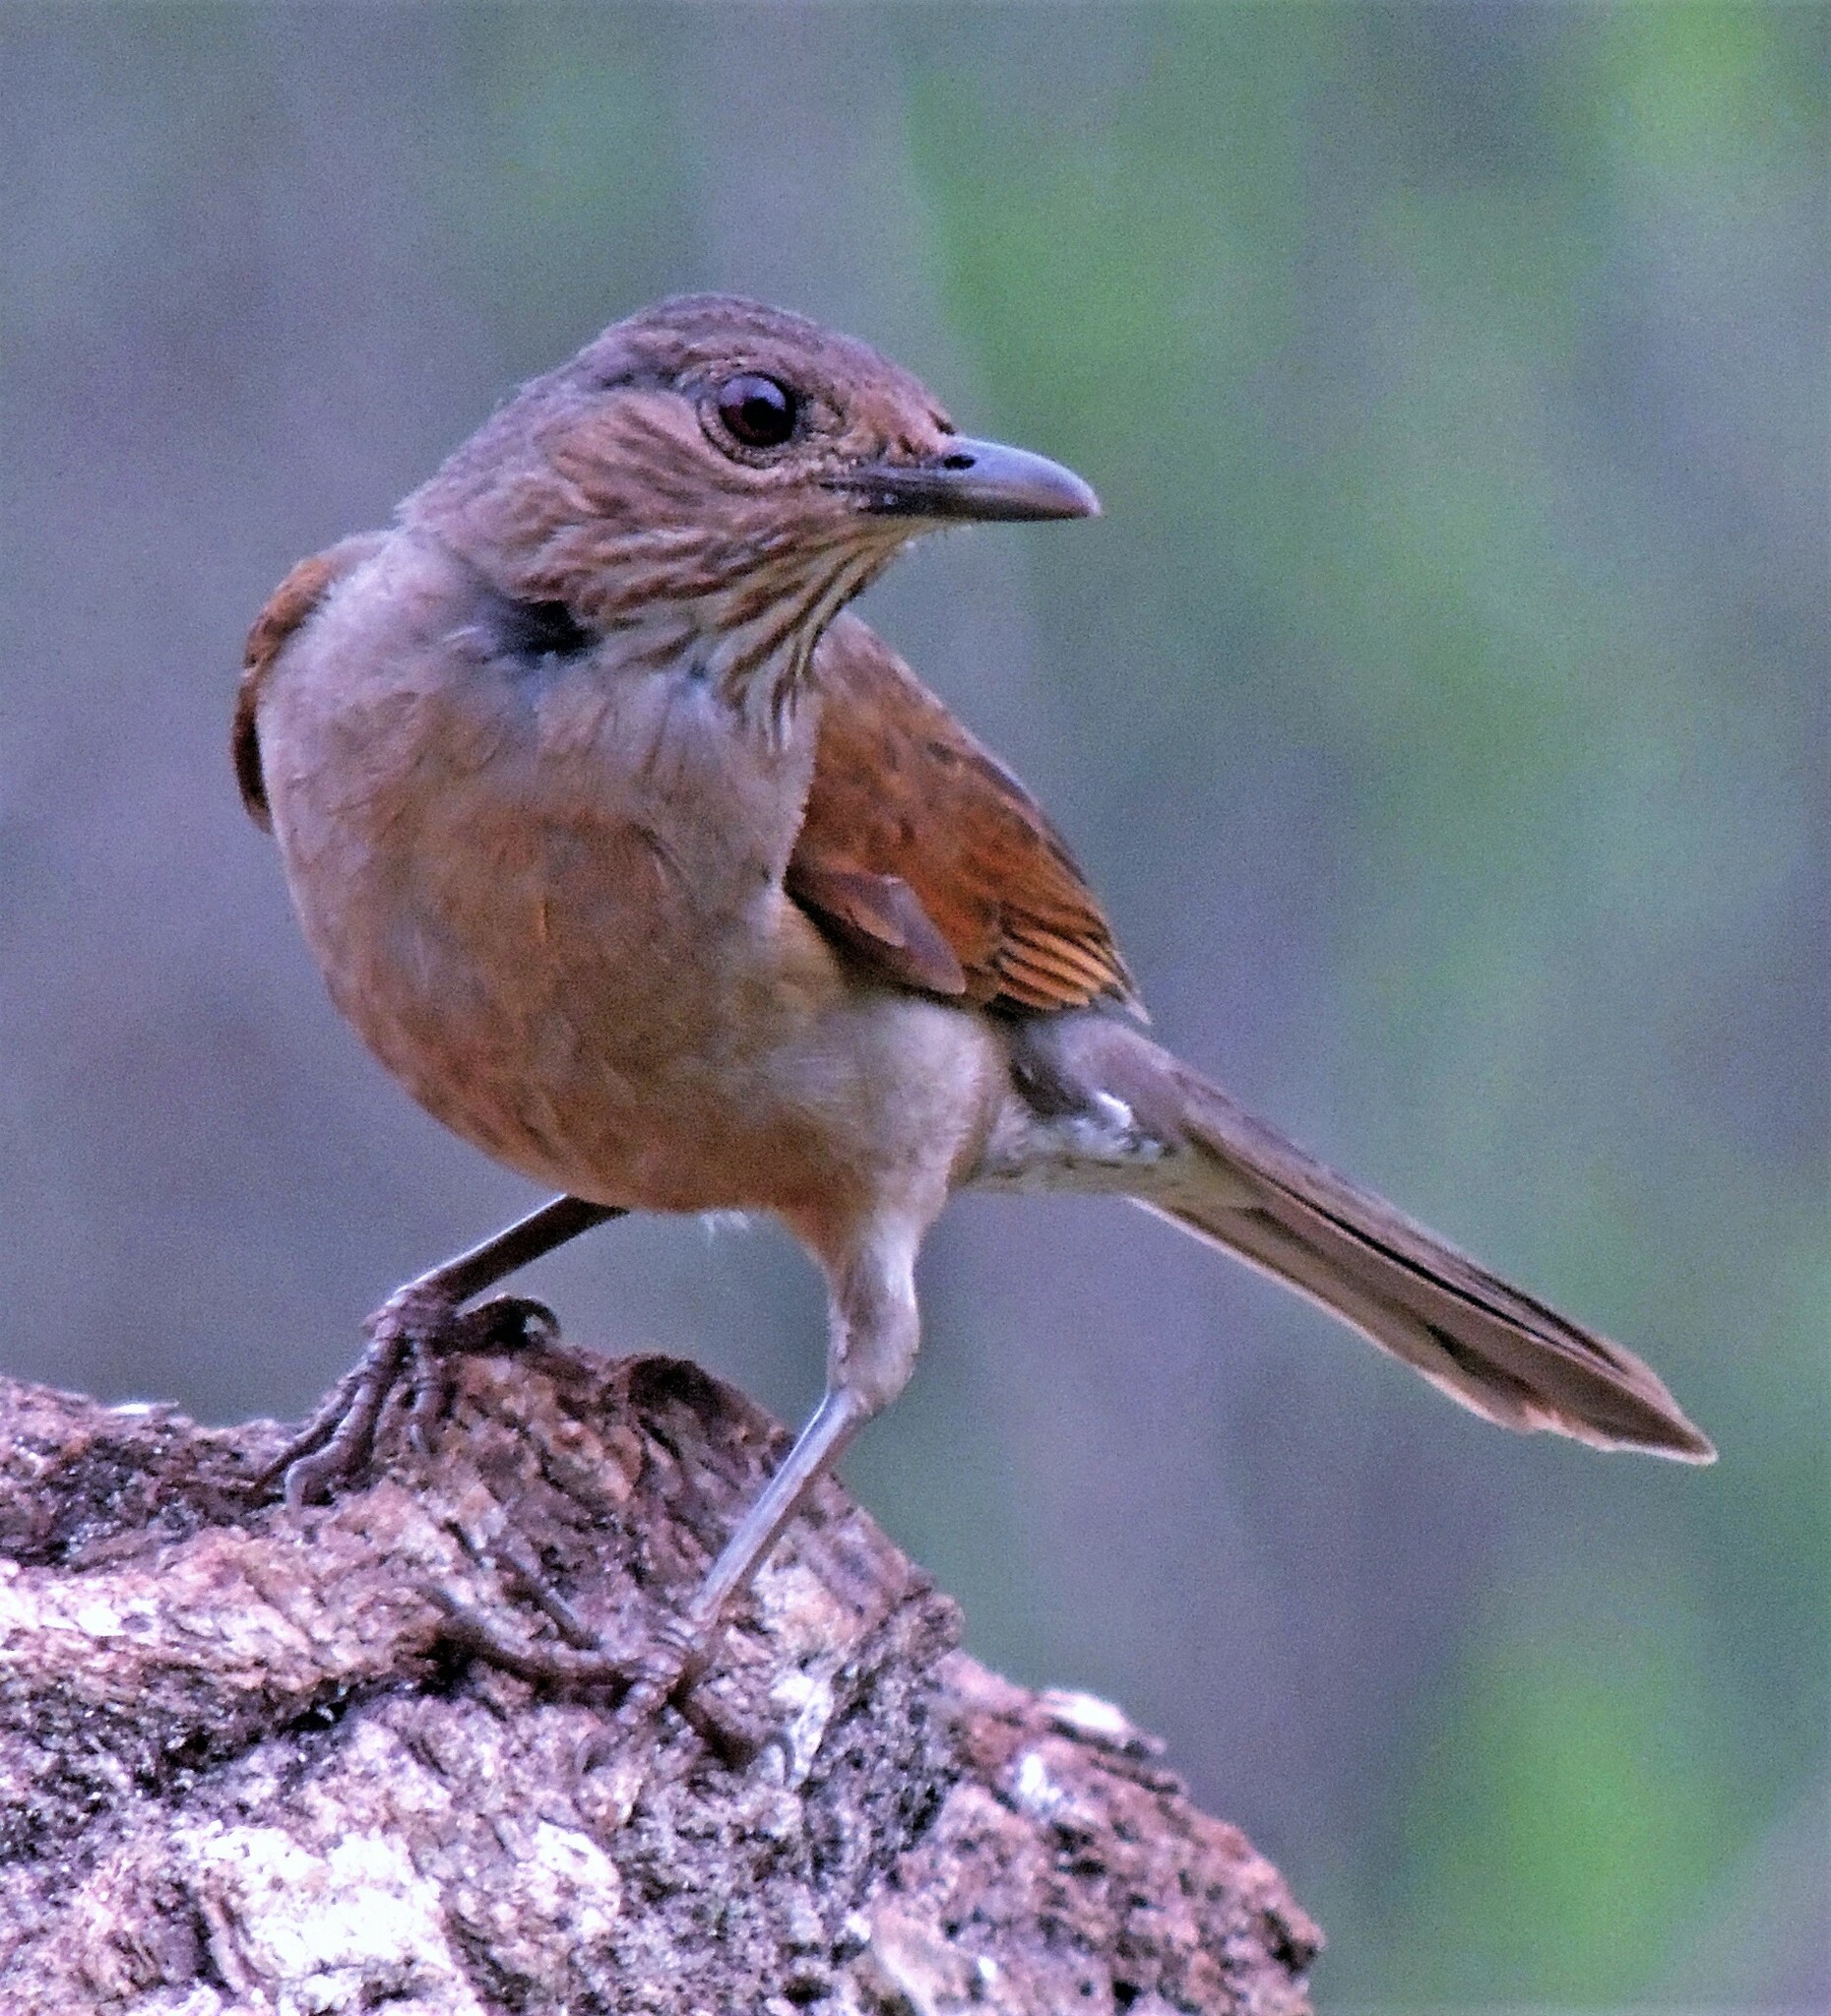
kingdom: Animalia
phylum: Chordata
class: Aves
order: Passeriformes
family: Turdidae
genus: Turdus
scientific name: Turdus leucomelas
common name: Pale-breasted thrush
